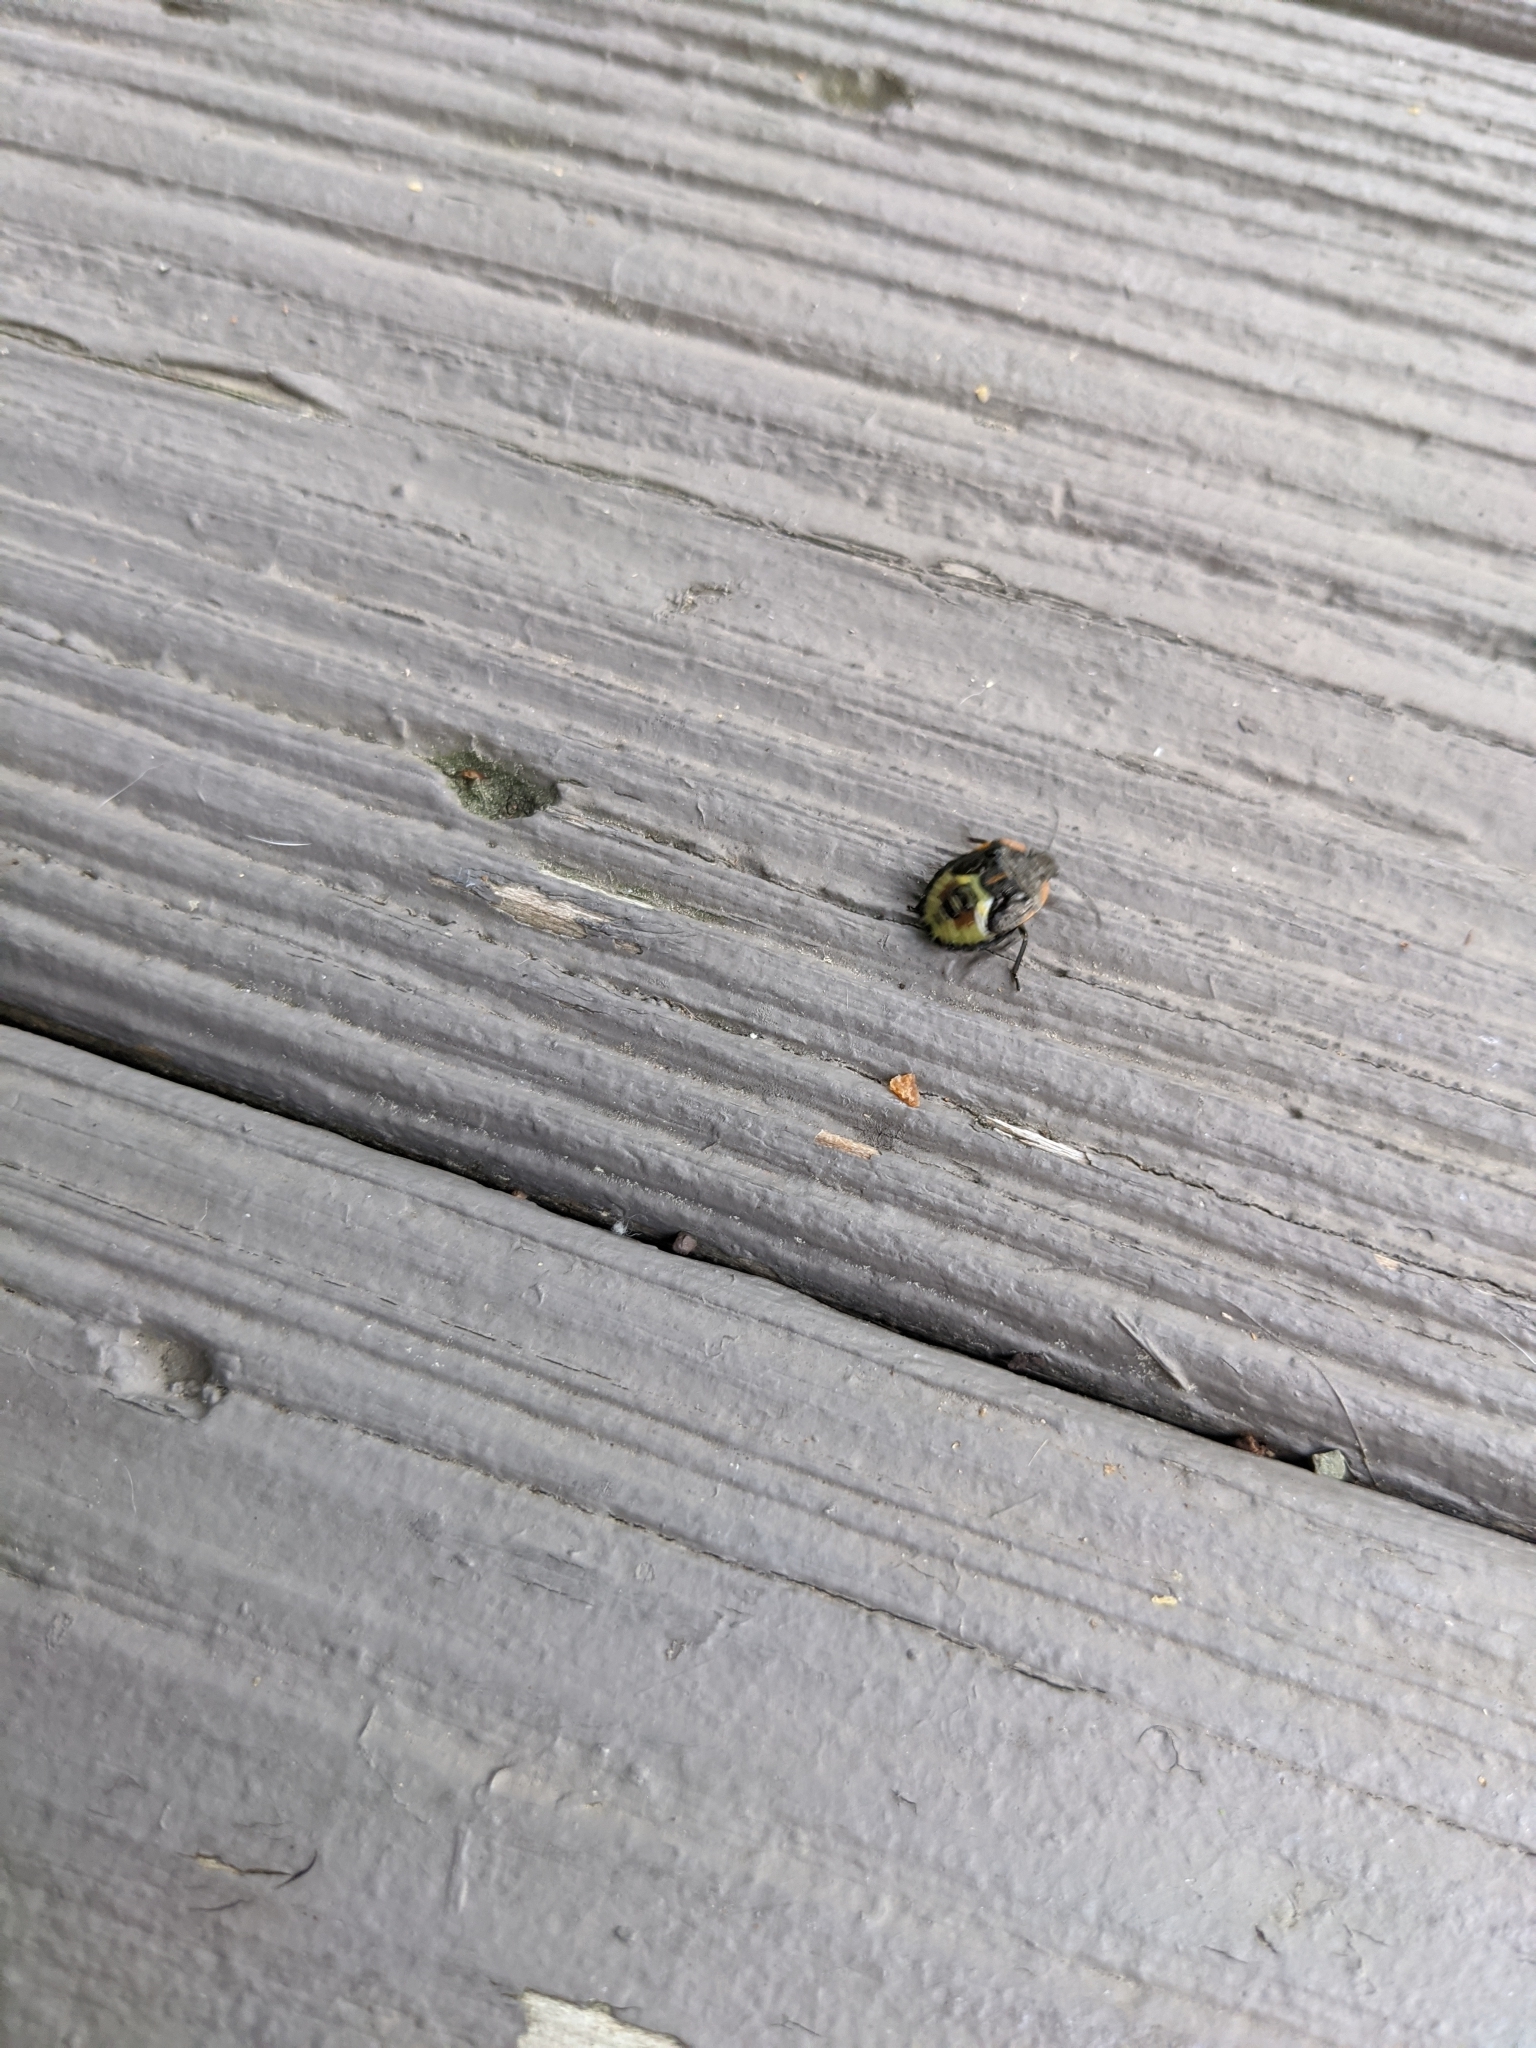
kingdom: Animalia
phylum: Arthropoda
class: Insecta
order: Hemiptera
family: Pentatomidae
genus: Chinavia
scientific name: Chinavia hilaris
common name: Green stink bug
